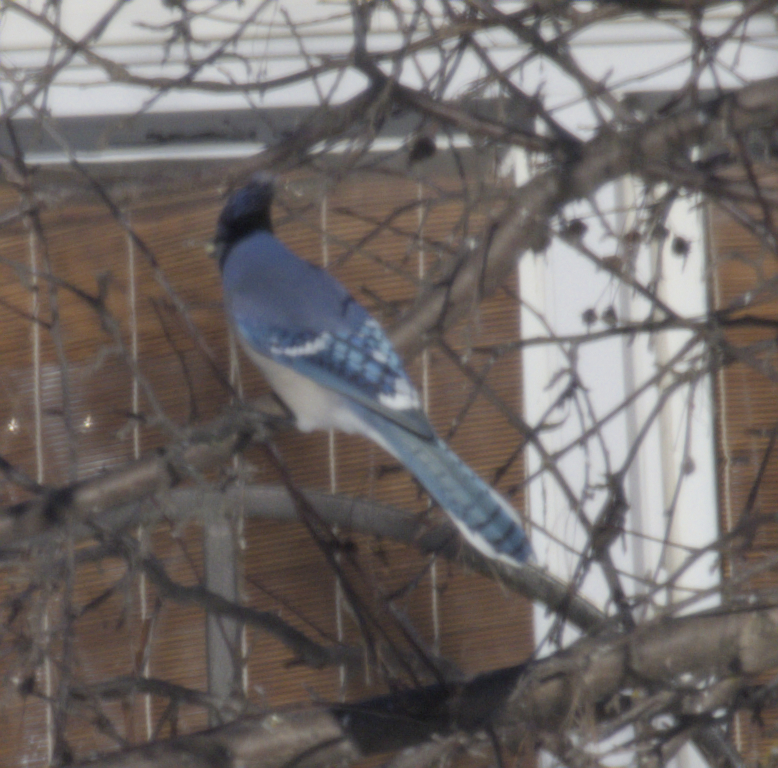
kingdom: Animalia
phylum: Chordata
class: Aves
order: Passeriformes
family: Corvidae
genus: Cyanocitta
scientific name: Cyanocitta cristata
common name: Blue jay
